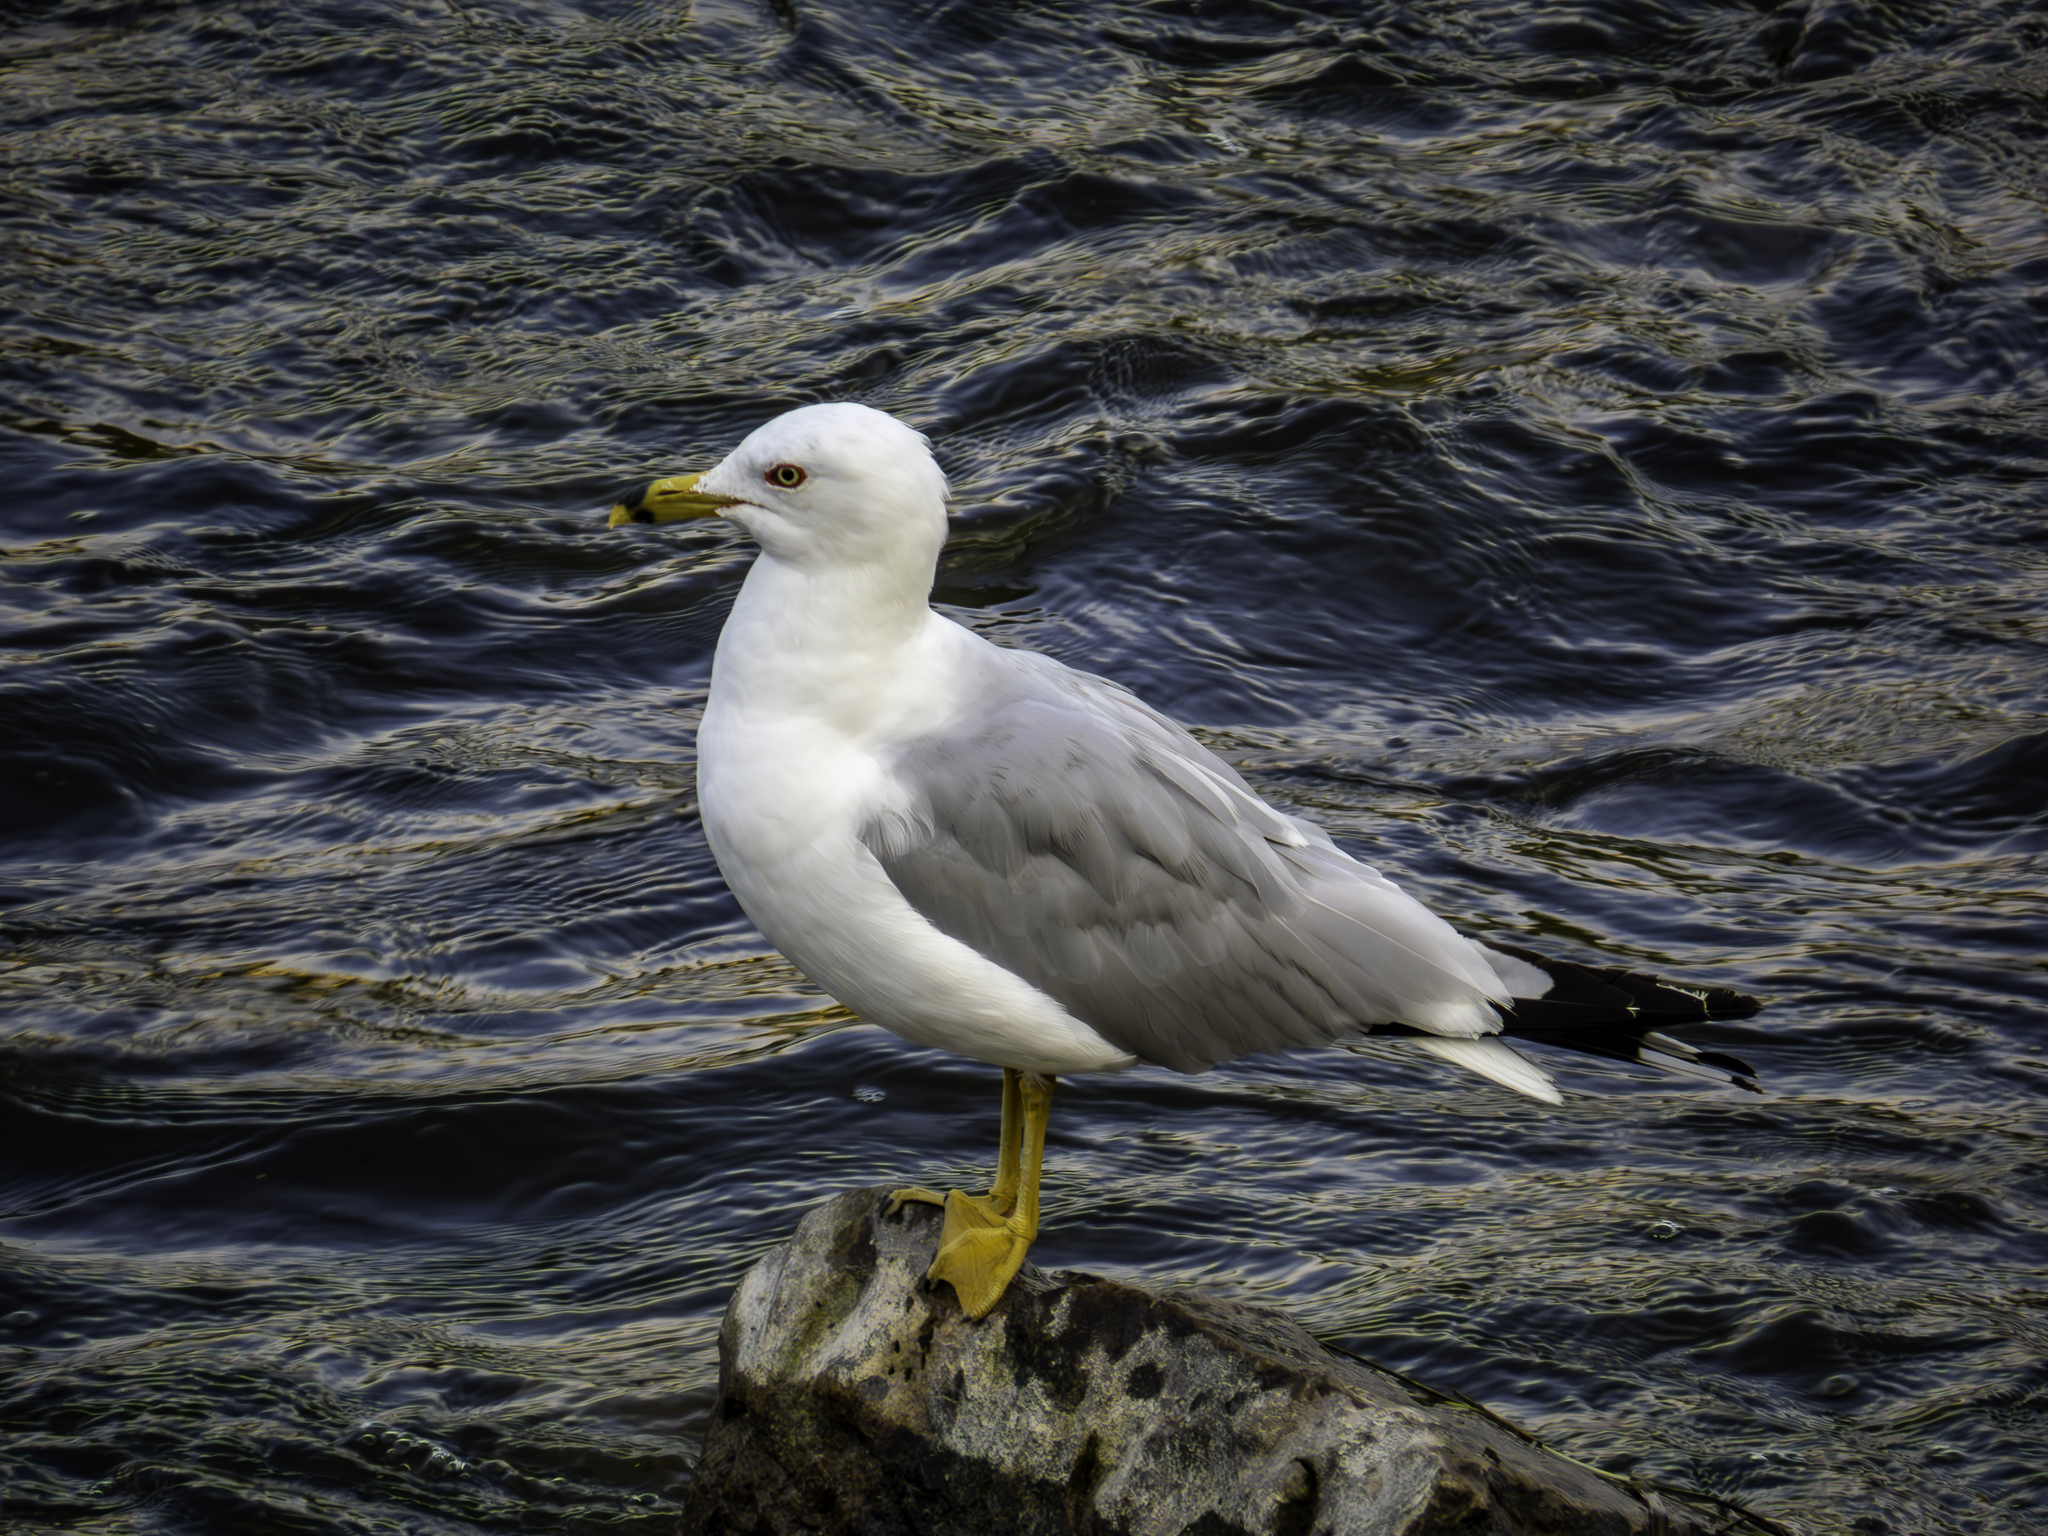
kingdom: Animalia
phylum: Chordata
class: Aves
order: Charadriiformes
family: Laridae
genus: Larus
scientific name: Larus delawarensis
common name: Ring-billed gull
